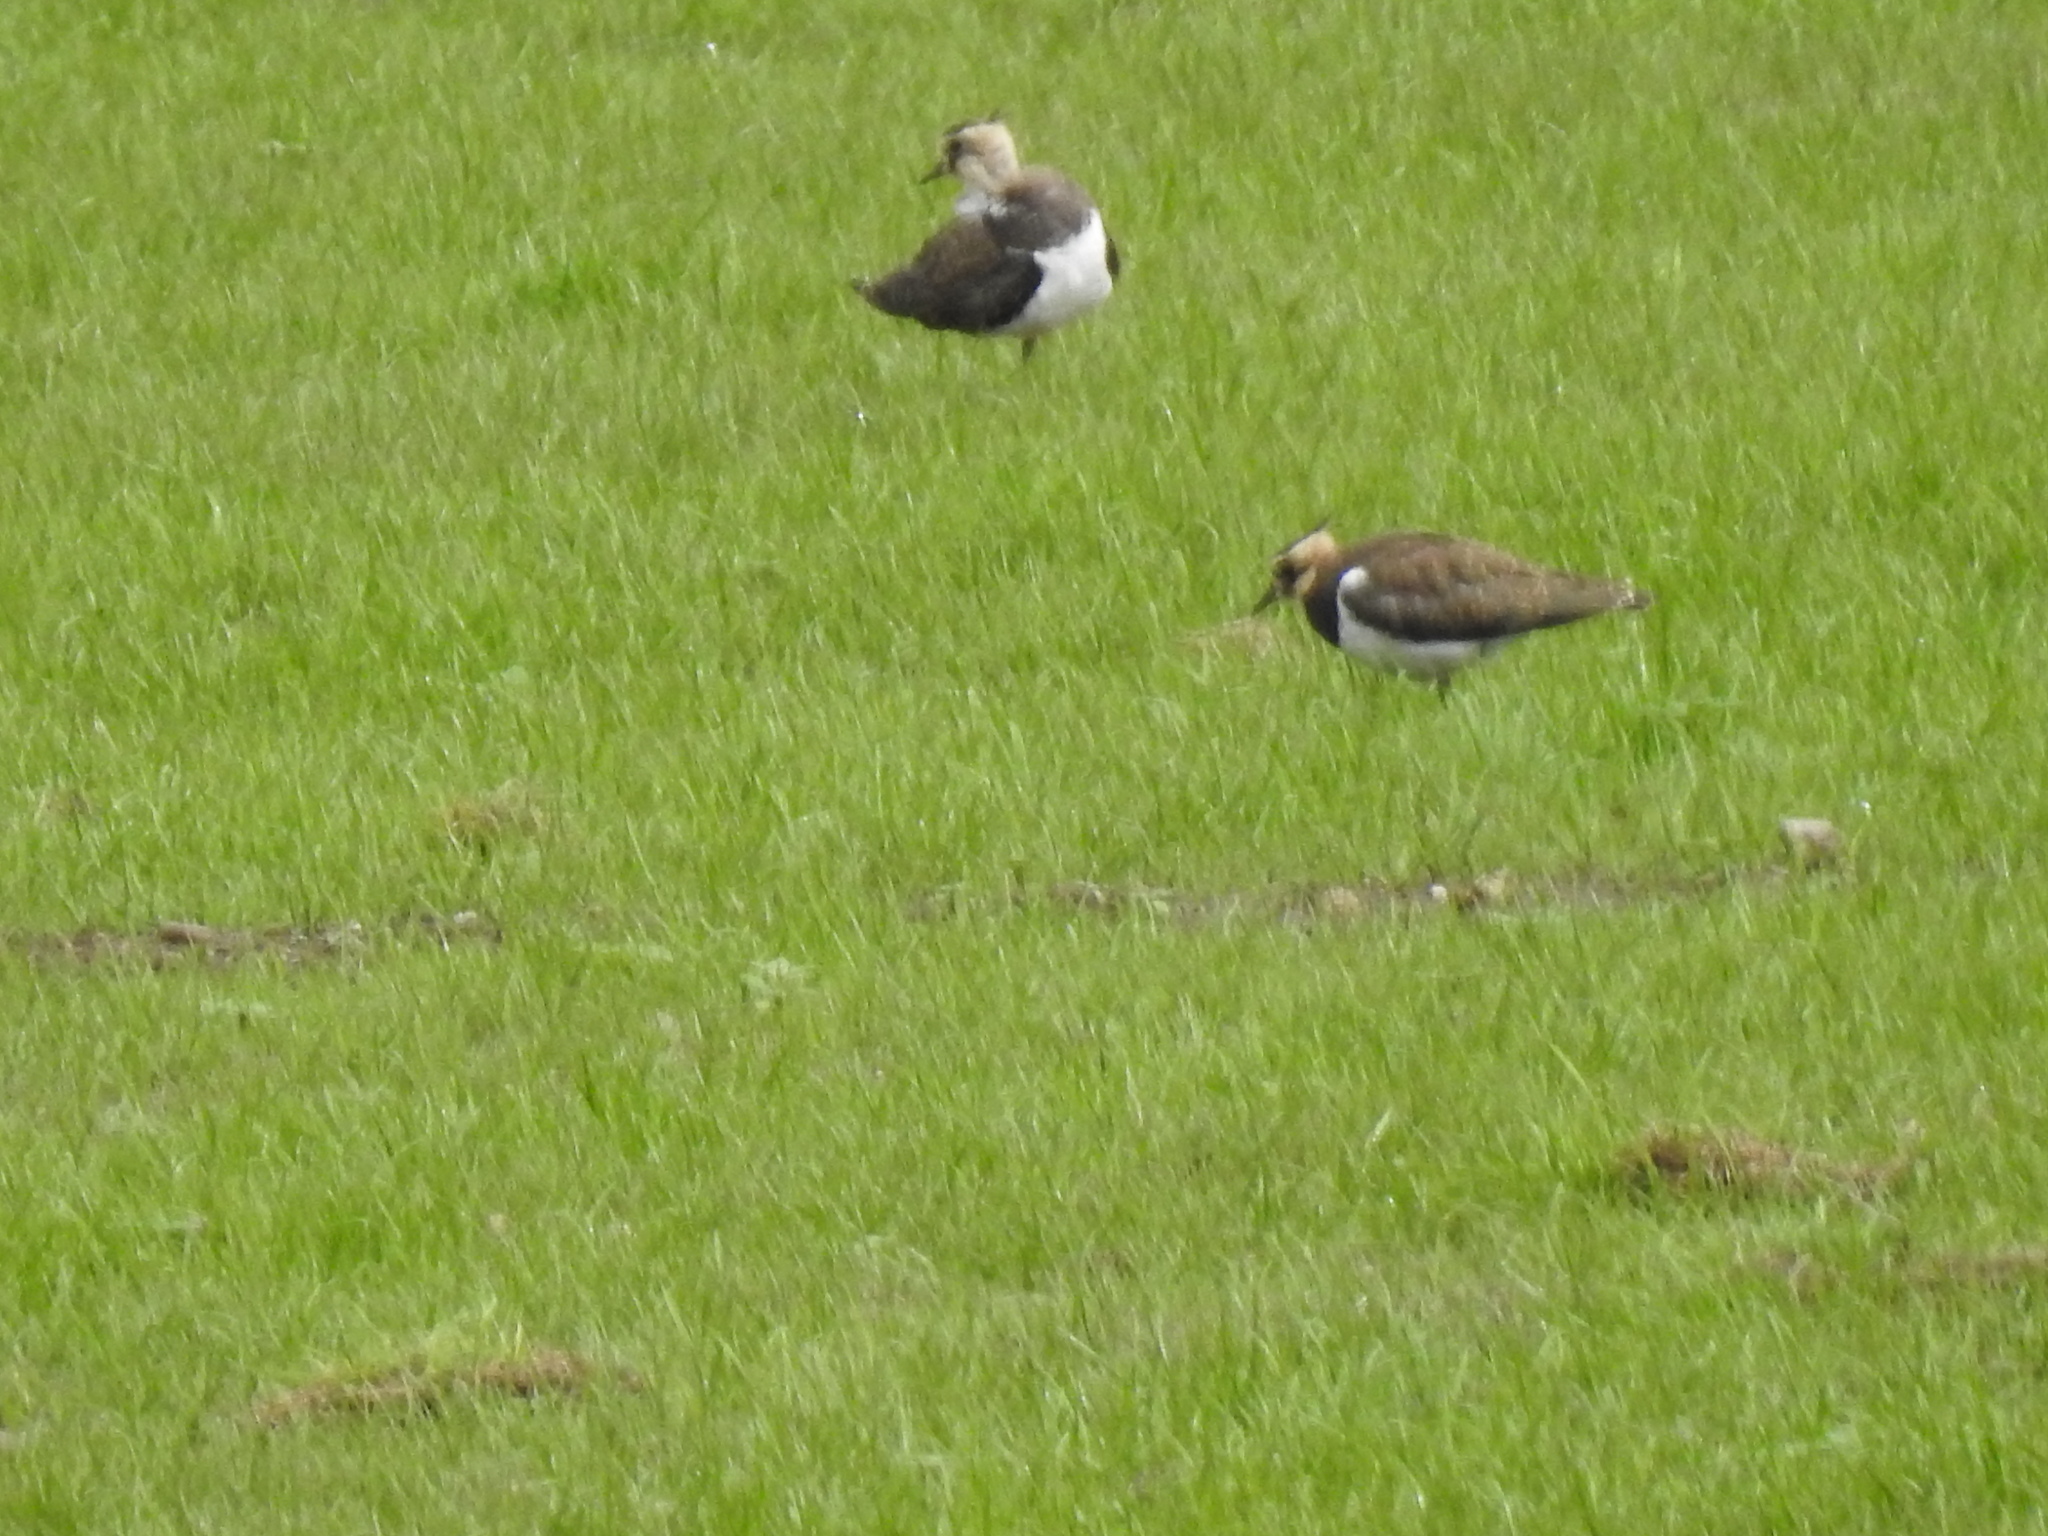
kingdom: Animalia
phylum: Chordata
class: Aves
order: Charadriiformes
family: Charadriidae
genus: Vanellus
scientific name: Vanellus vanellus
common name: Northern lapwing
